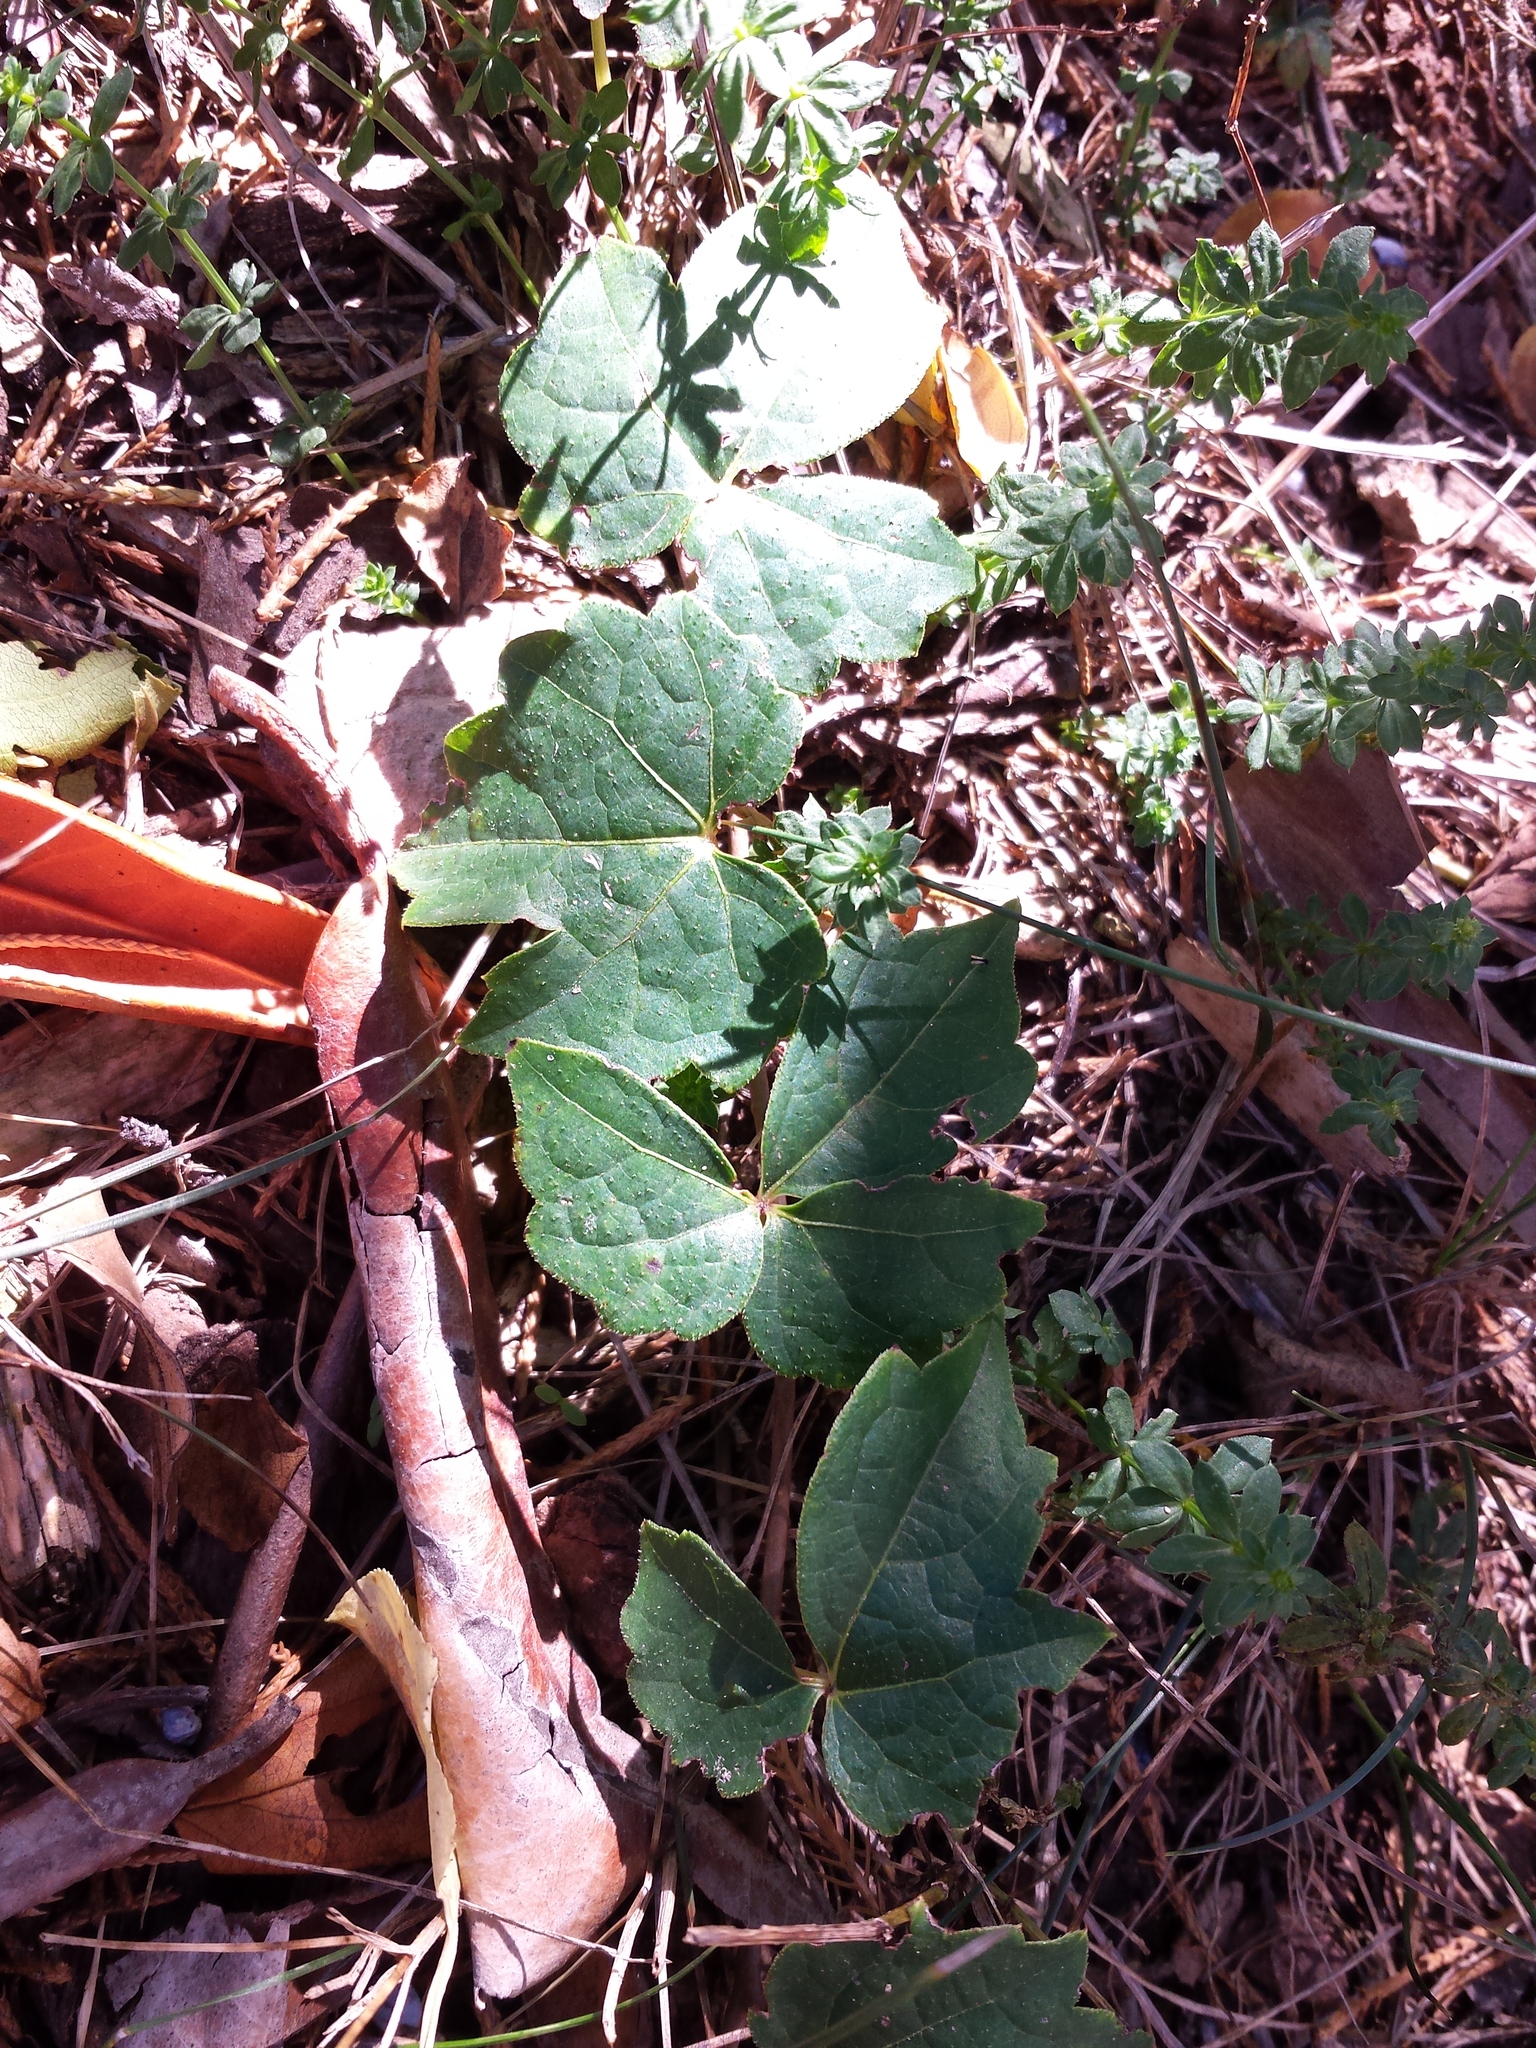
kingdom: Plantae
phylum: Tracheophyta
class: Magnoliopsida
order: Vitales
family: Vitaceae
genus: Parthenocissus
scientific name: Parthenocissus tricuspidata
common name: Boston ivy
